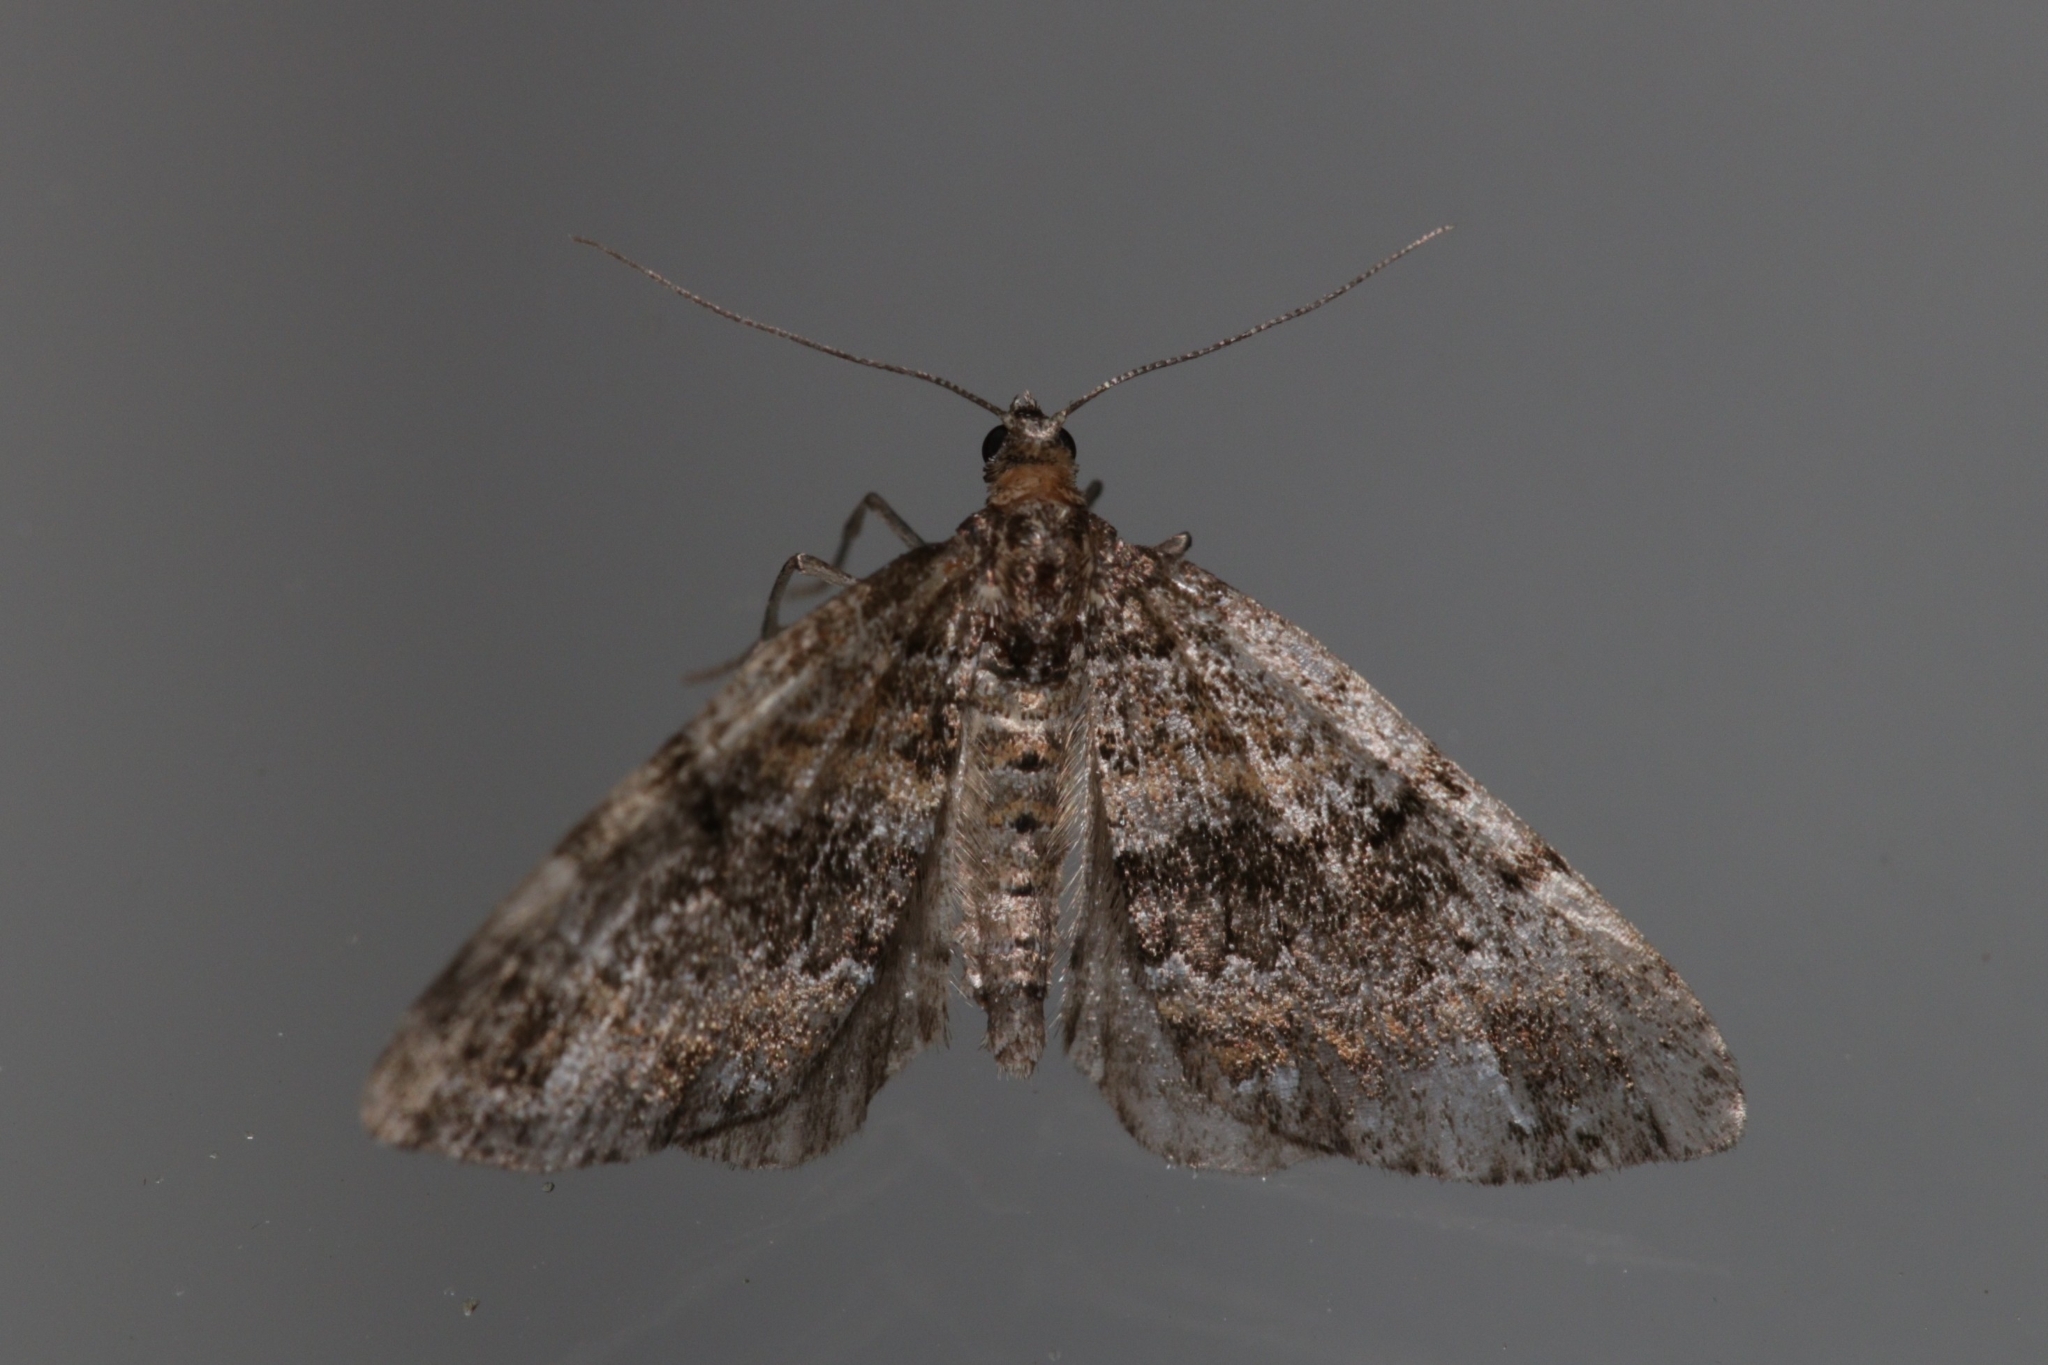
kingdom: Animalia
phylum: Arthropoda
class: Insecta
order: Lepidoptera
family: Geometridae
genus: Perizoma
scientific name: Perizoma taeniata
